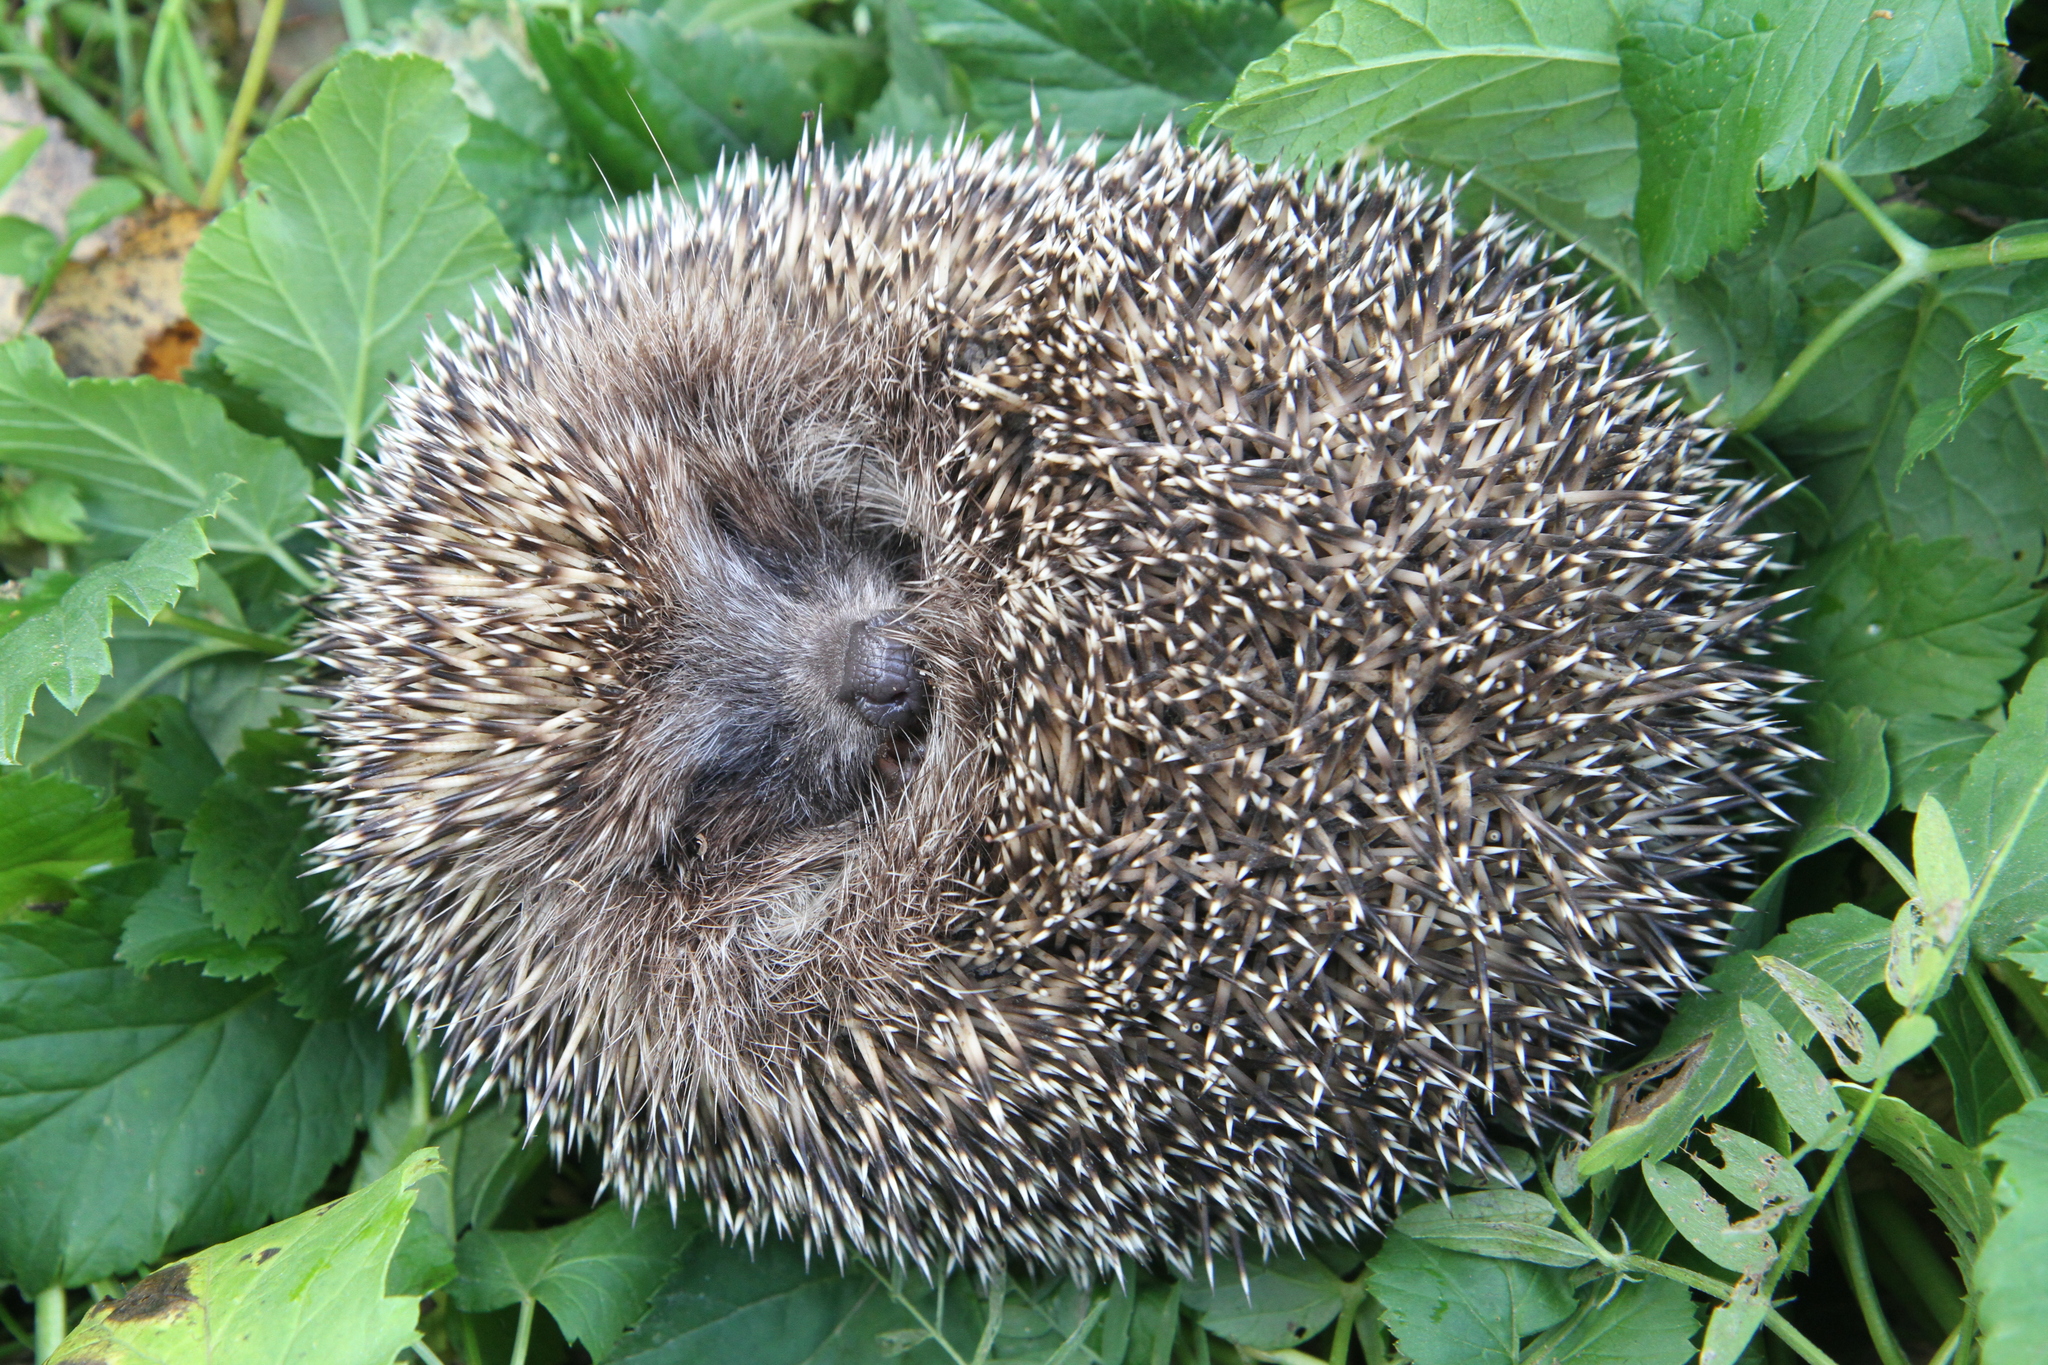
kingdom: Animalia
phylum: Chordata
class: Mammalia
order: Erinaceomorpha
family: Erinaceidae
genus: Erinaceus
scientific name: Erinaceus europaeus
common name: West european hedgehog
